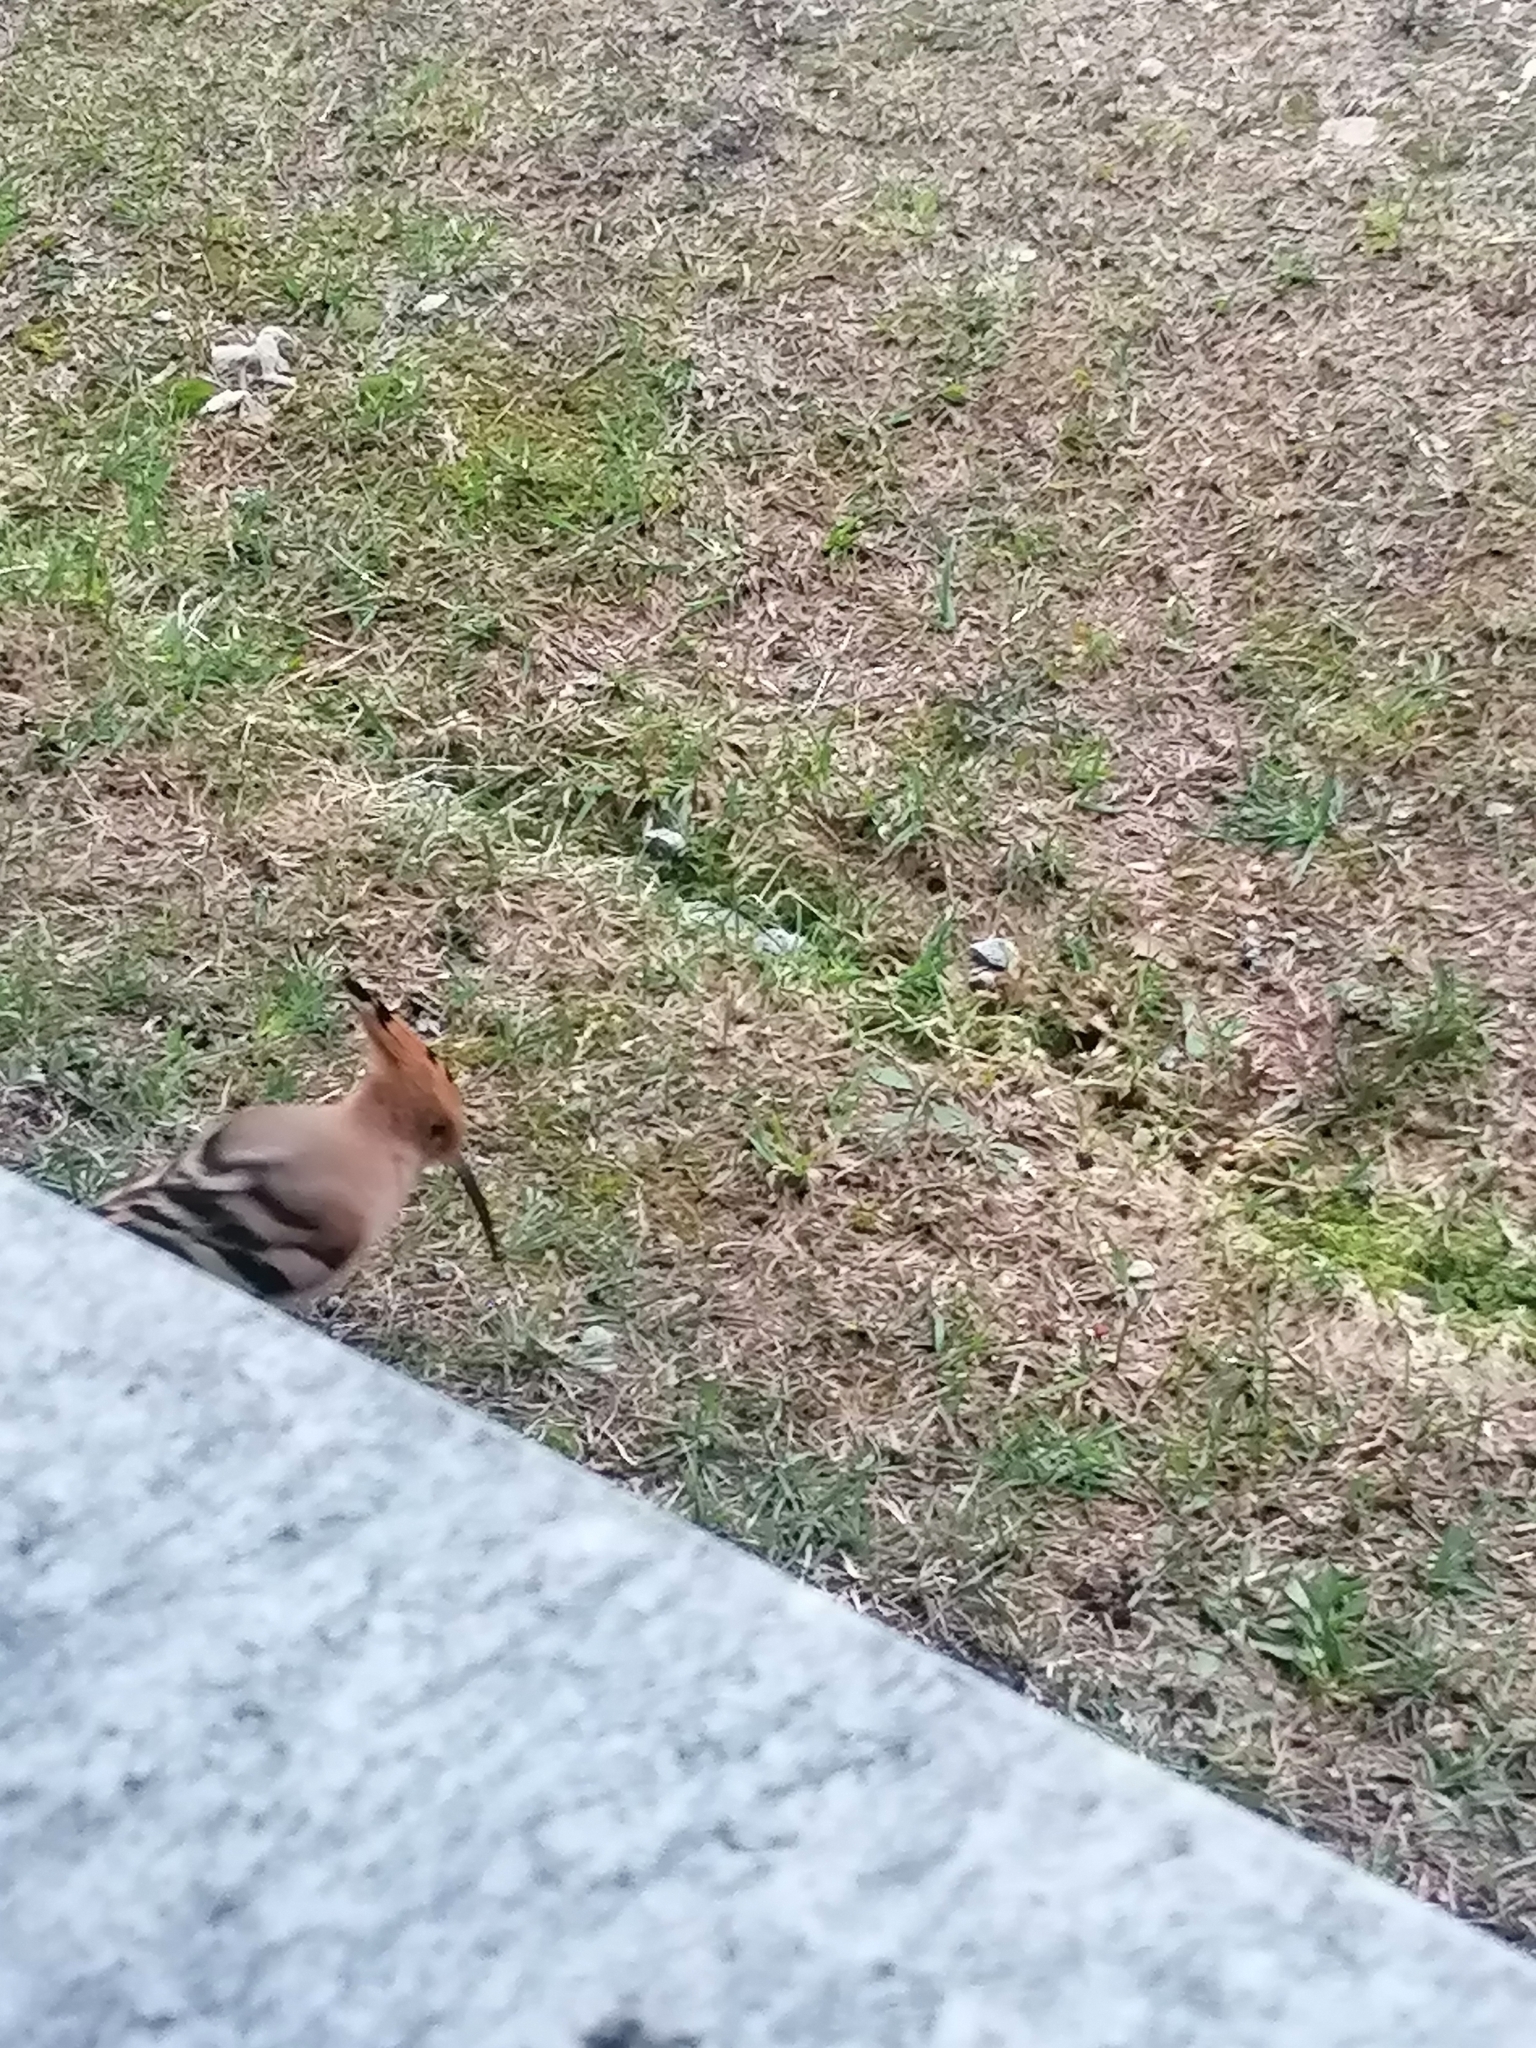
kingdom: Animalia
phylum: Chordata
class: Aves
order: Bucerotiformes
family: Upupidae
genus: Upupa
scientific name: Upupa epops
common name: Eurasian hoopoe
